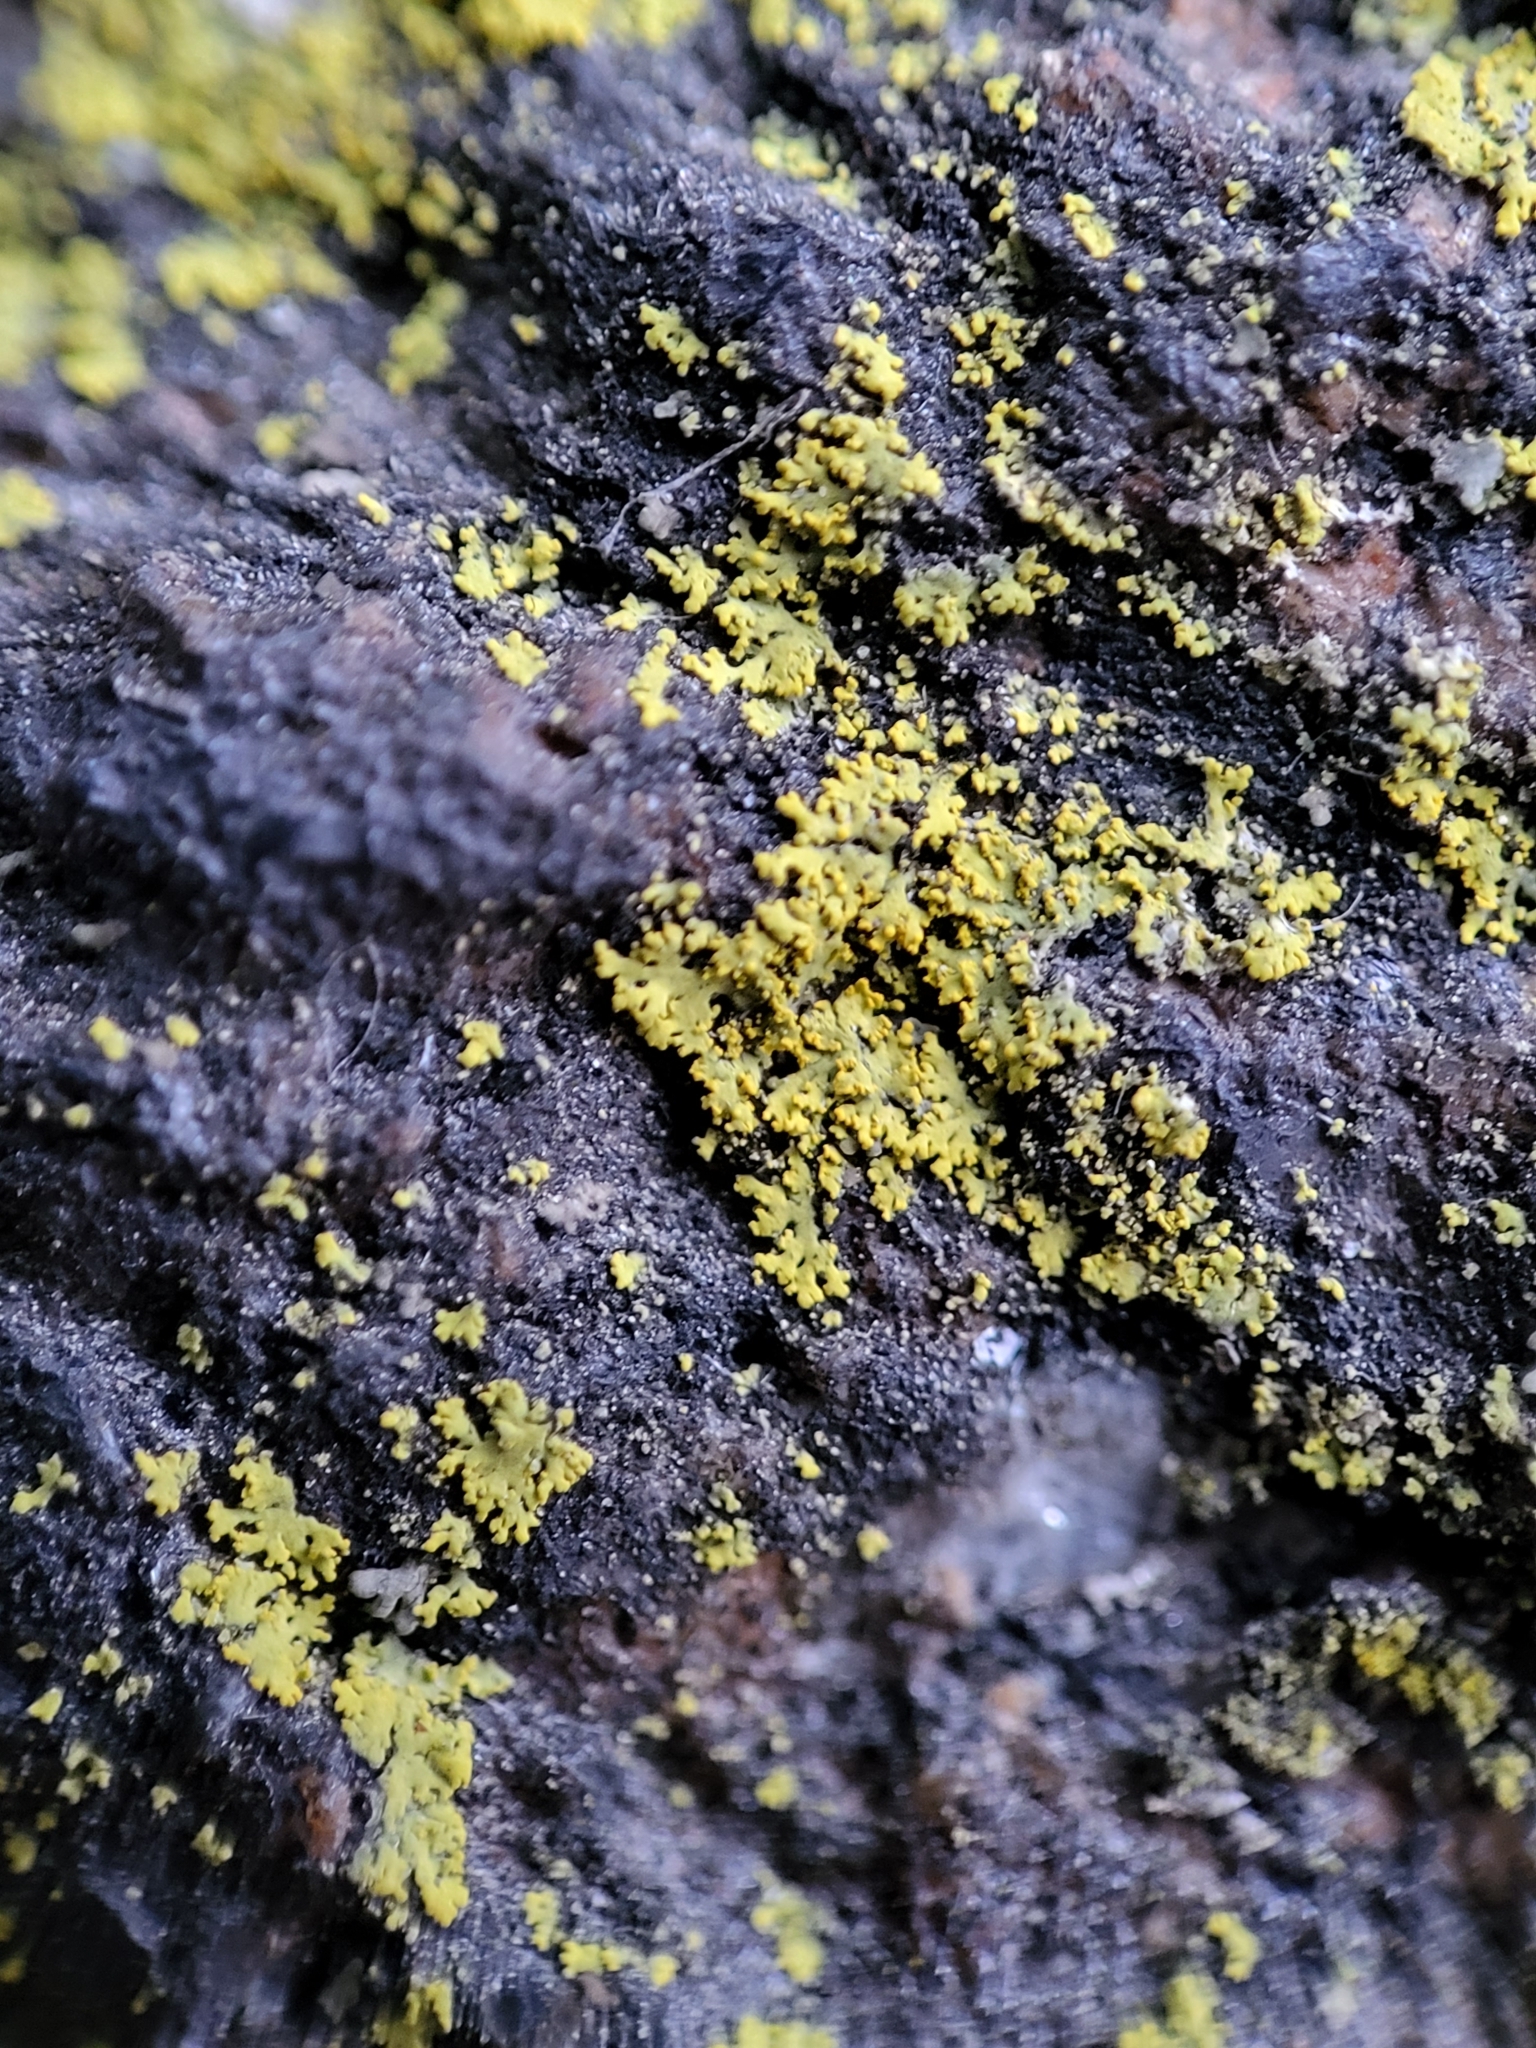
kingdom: Fungi
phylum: Ascomycota
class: Candelariomycetes
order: Candelariales
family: Candelariaceae
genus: Candelaria
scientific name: Candelaria concolor
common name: Candleflame lichen
